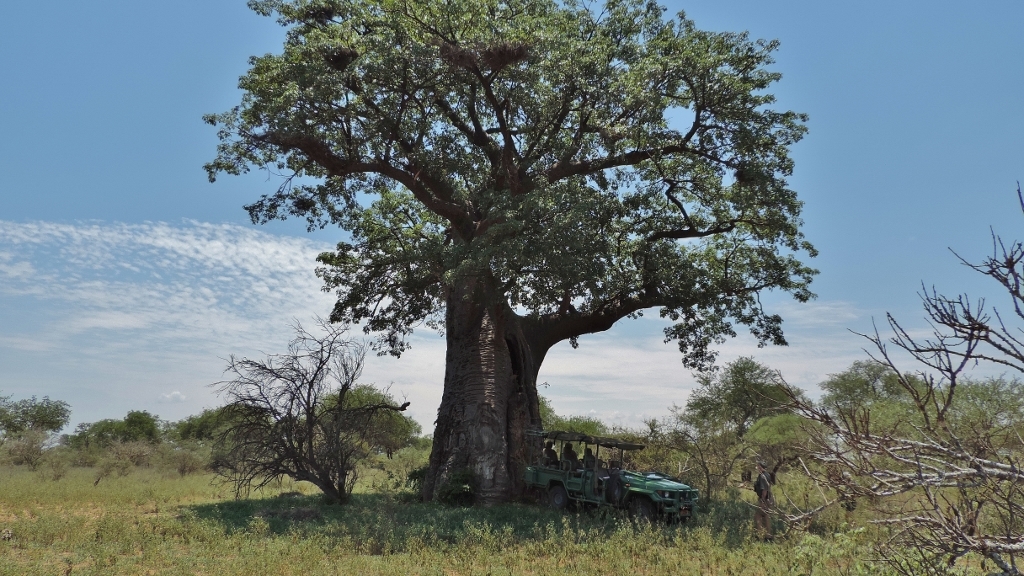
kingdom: Plantae
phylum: Tracheophyta
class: Magnoliopsida
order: Malvales
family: Malvaceae
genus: Adansonia
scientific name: Adansonia digitata
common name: Dead-rat-tree
